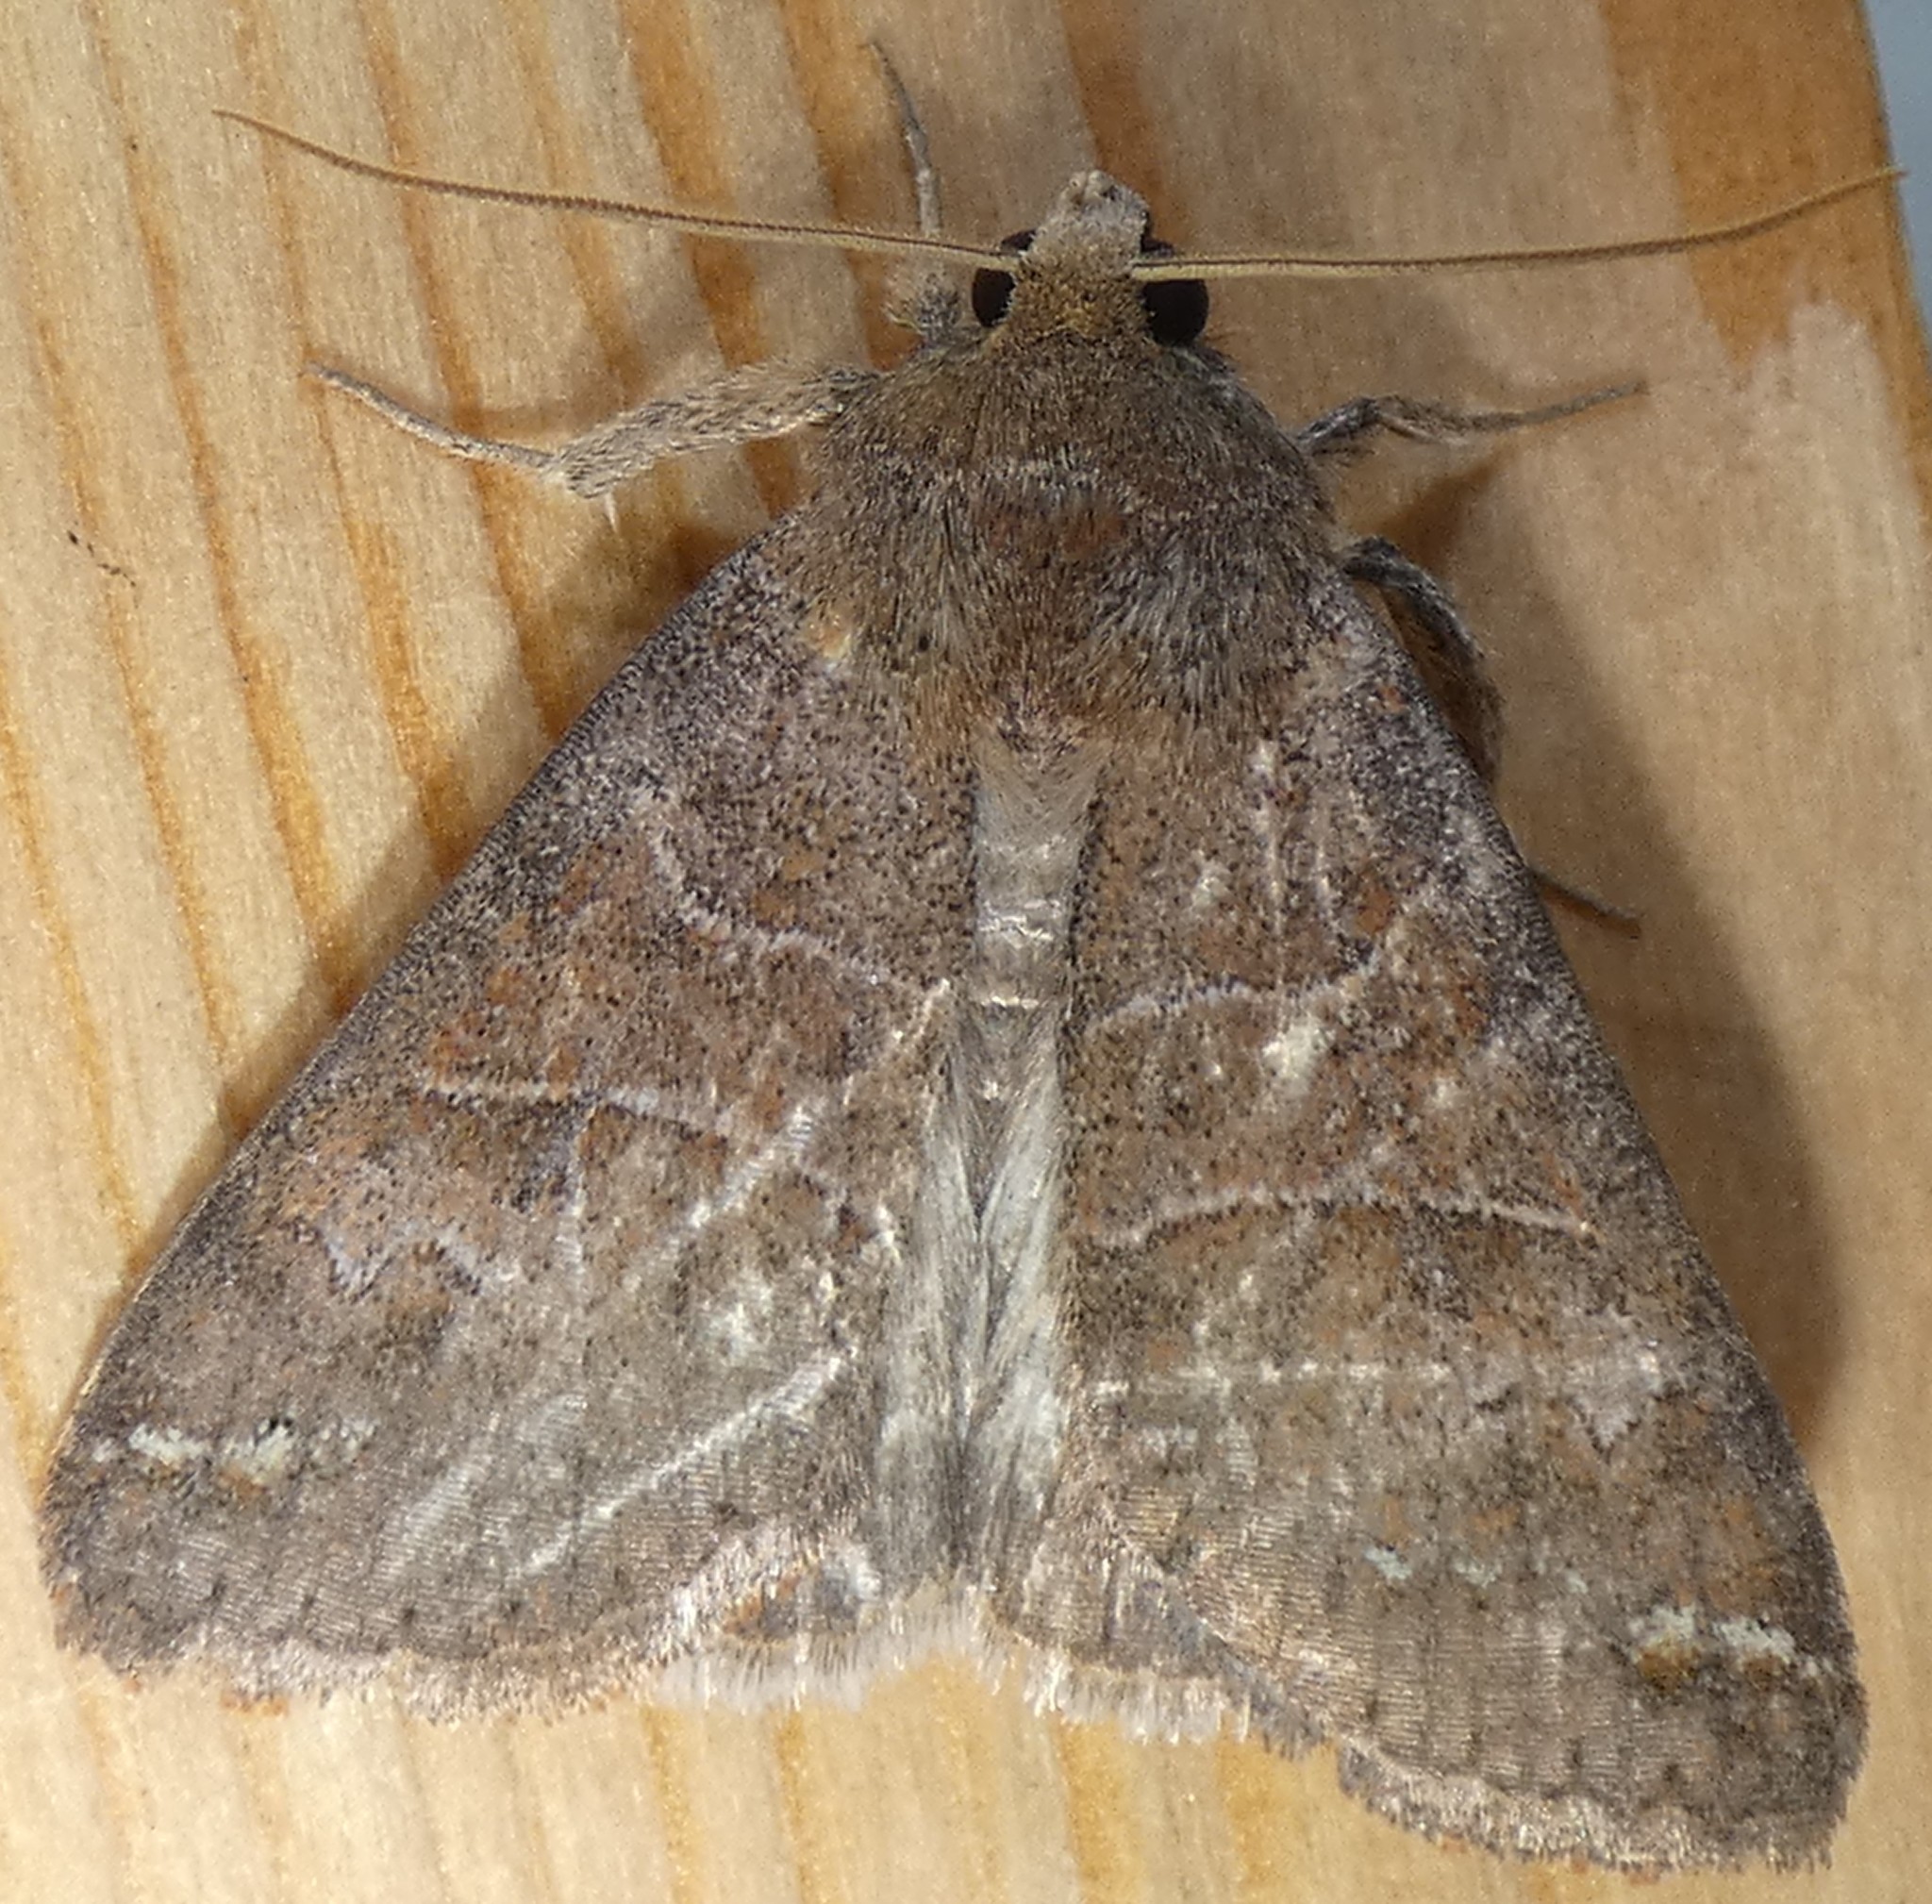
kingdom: Animalia
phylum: Arthropoda
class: Insecta
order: Lepidoptera
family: Erebidae
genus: Cissusa
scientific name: Cissusa spadix
